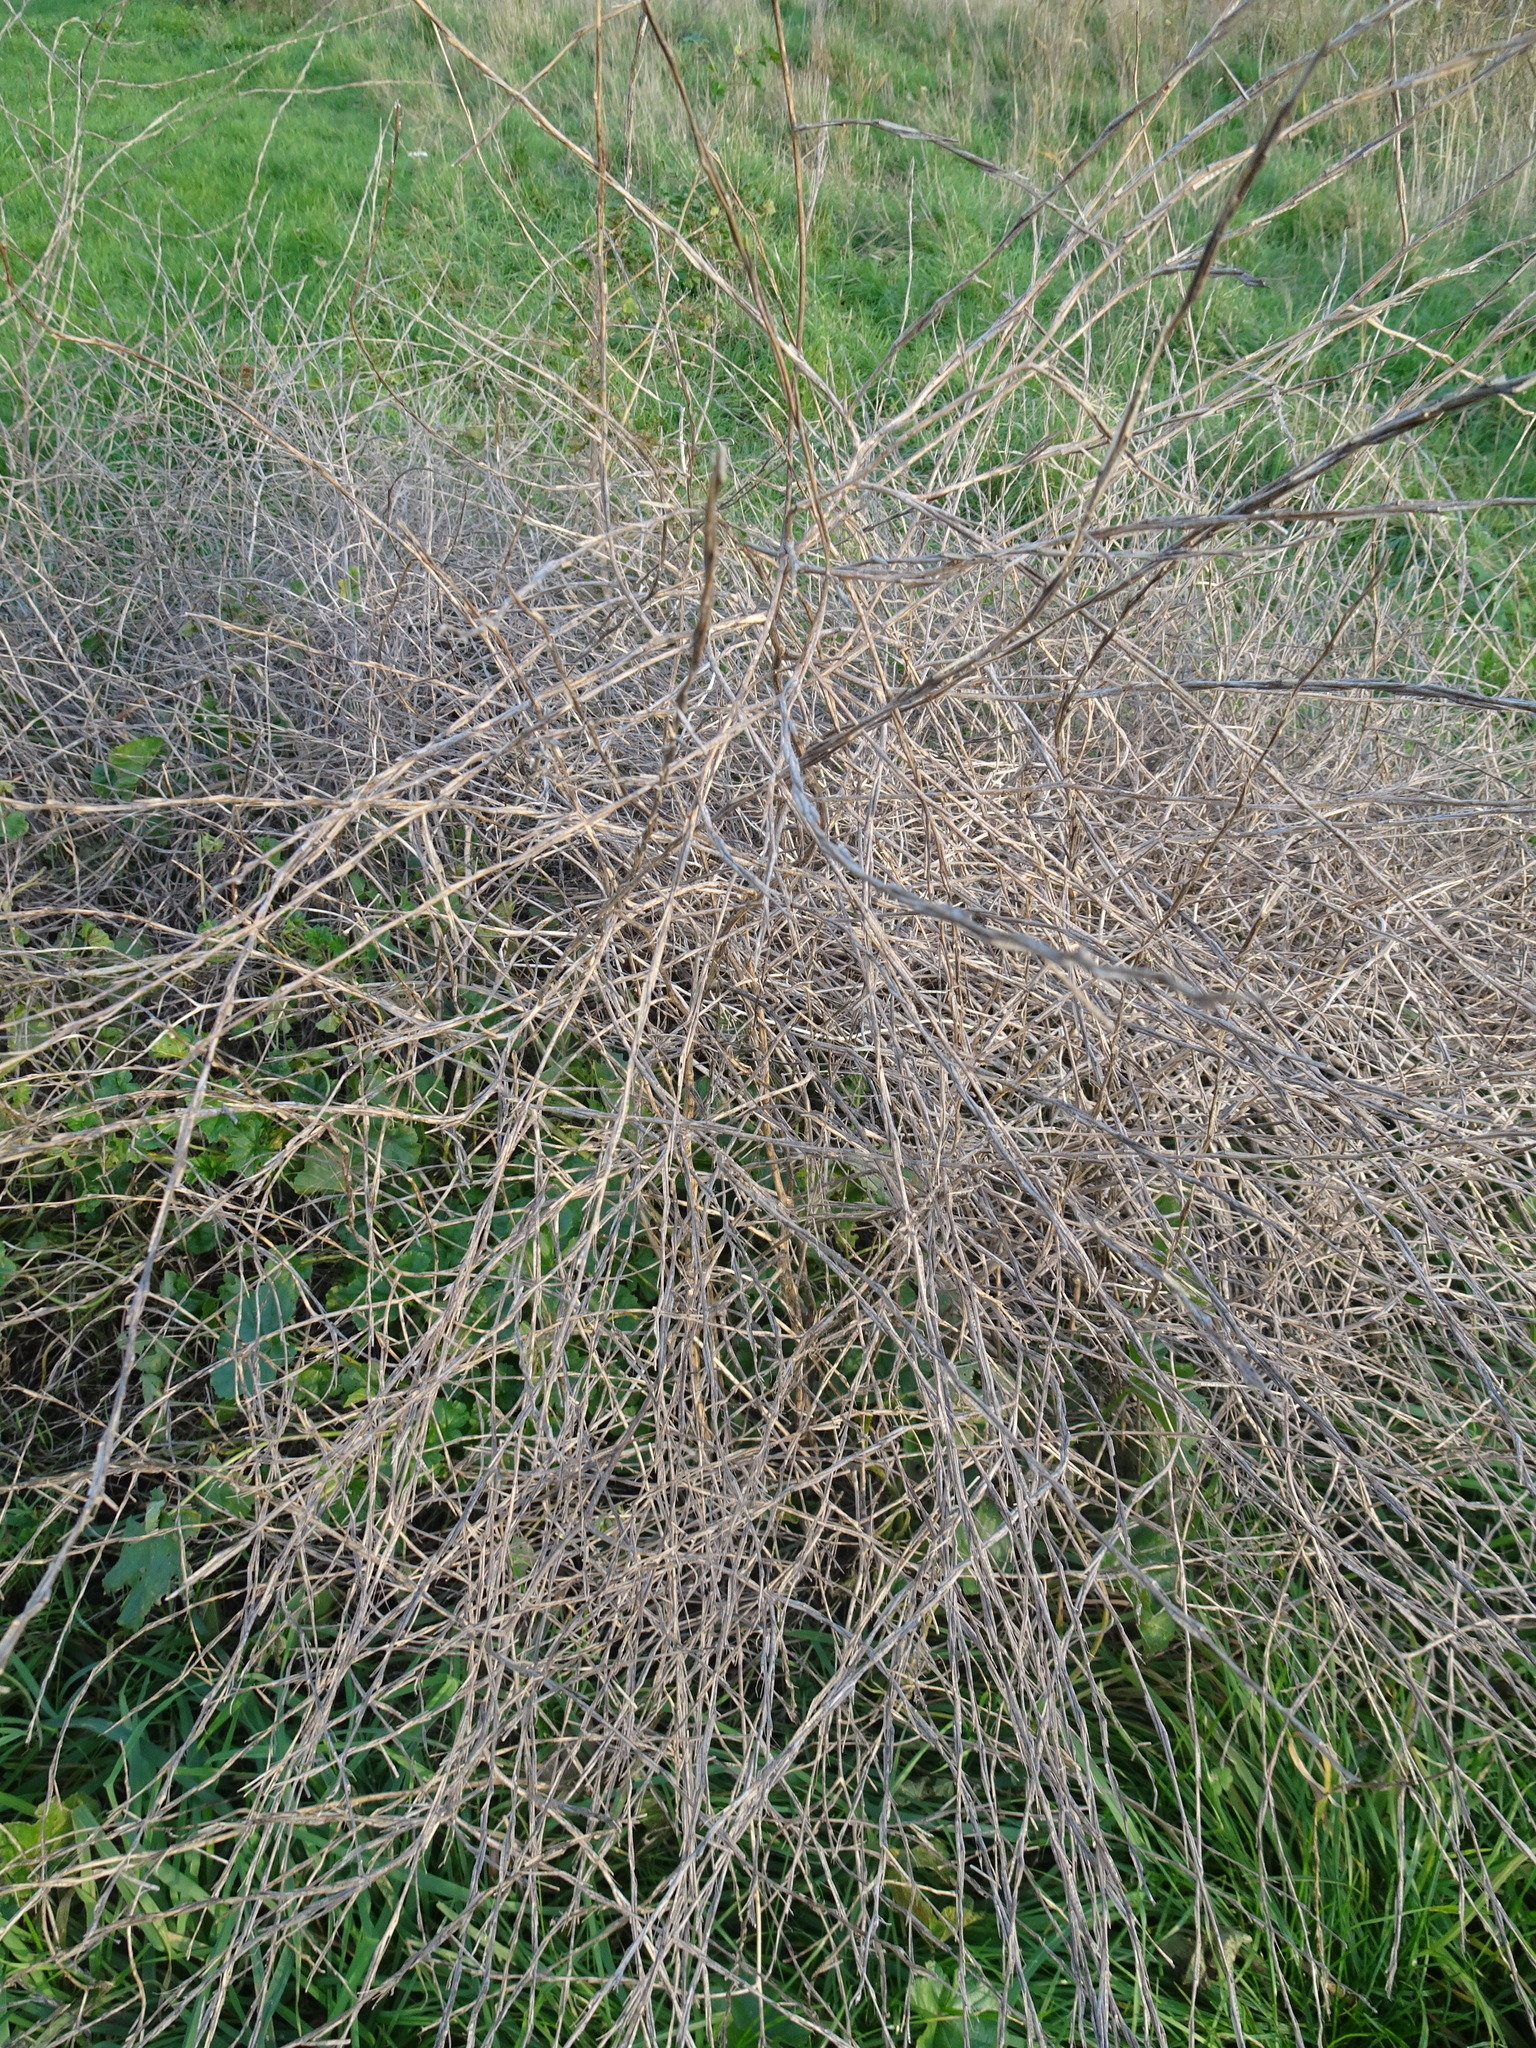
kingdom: Plantae
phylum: Tracheophyta
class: Magnoliopsida
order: Brassicales
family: Brassicaceae
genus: Sisymbrium
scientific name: Sisymbrium officinale
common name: Hedge mustard
